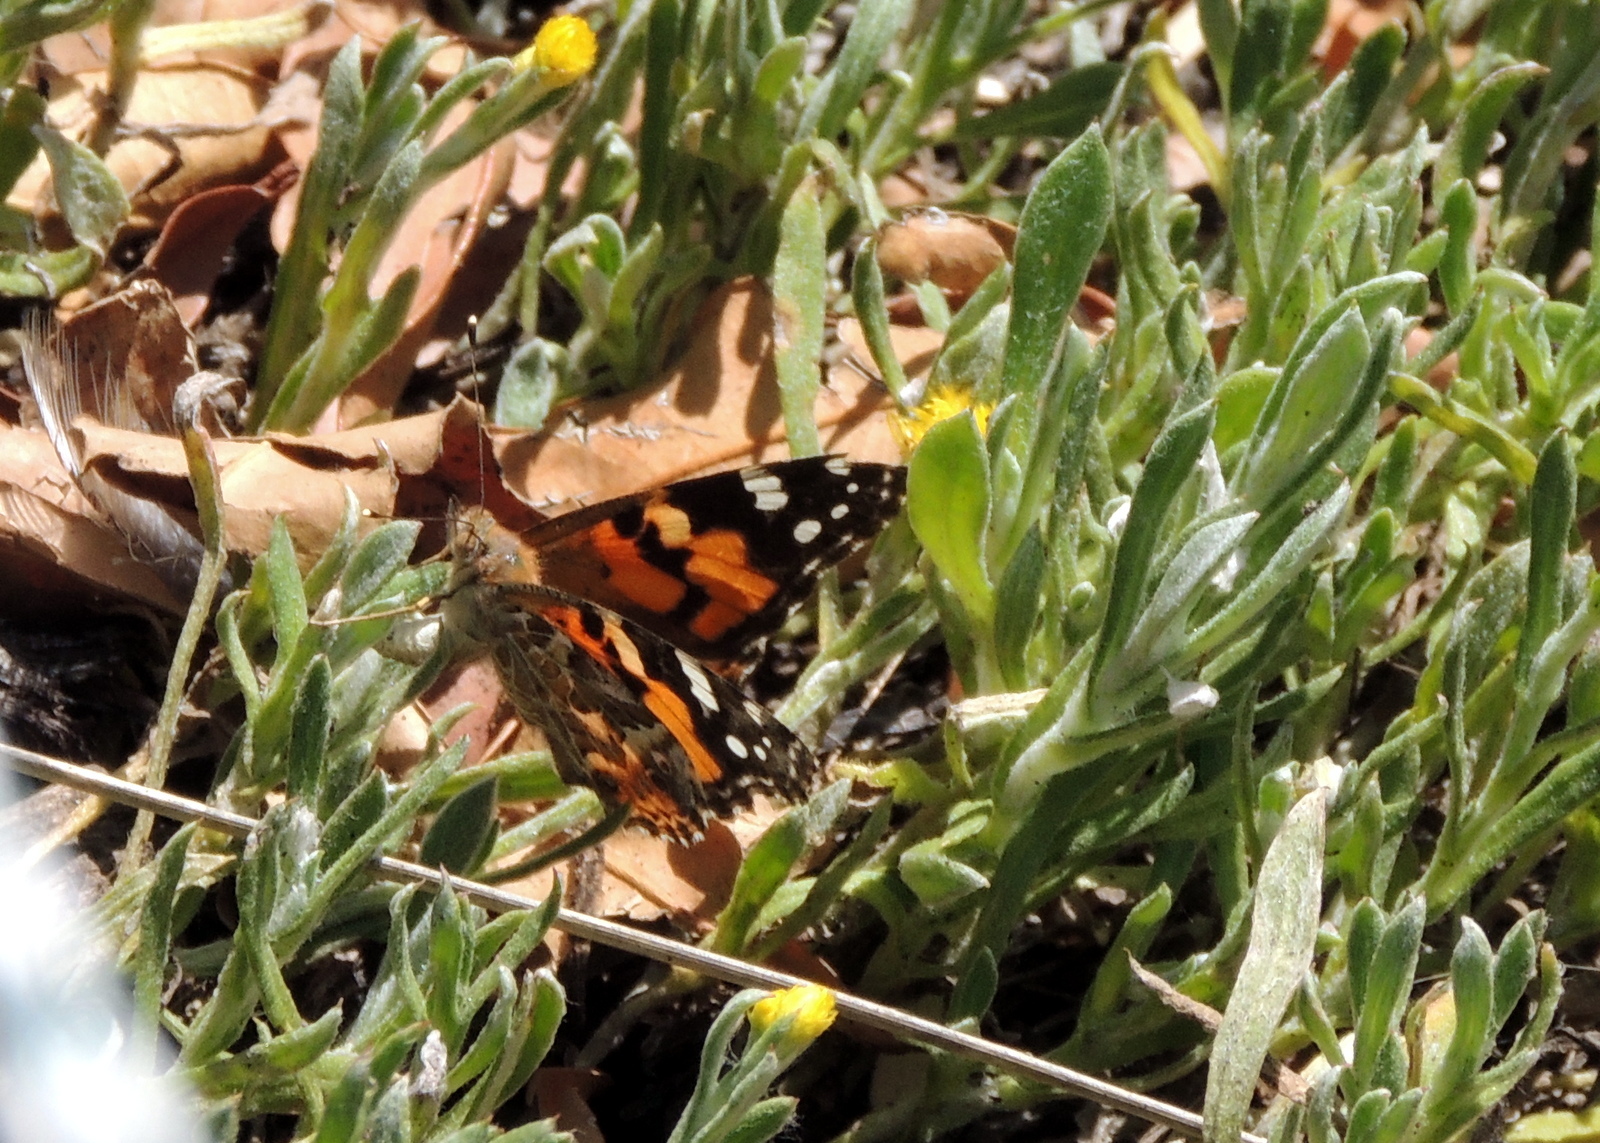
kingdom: Plantae
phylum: Tracheophyta
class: Magnoliopsida
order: Asterales
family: Asteraceae
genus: Chrysocephalum
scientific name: Chrysocephalum apiculatum
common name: Common everlasting
